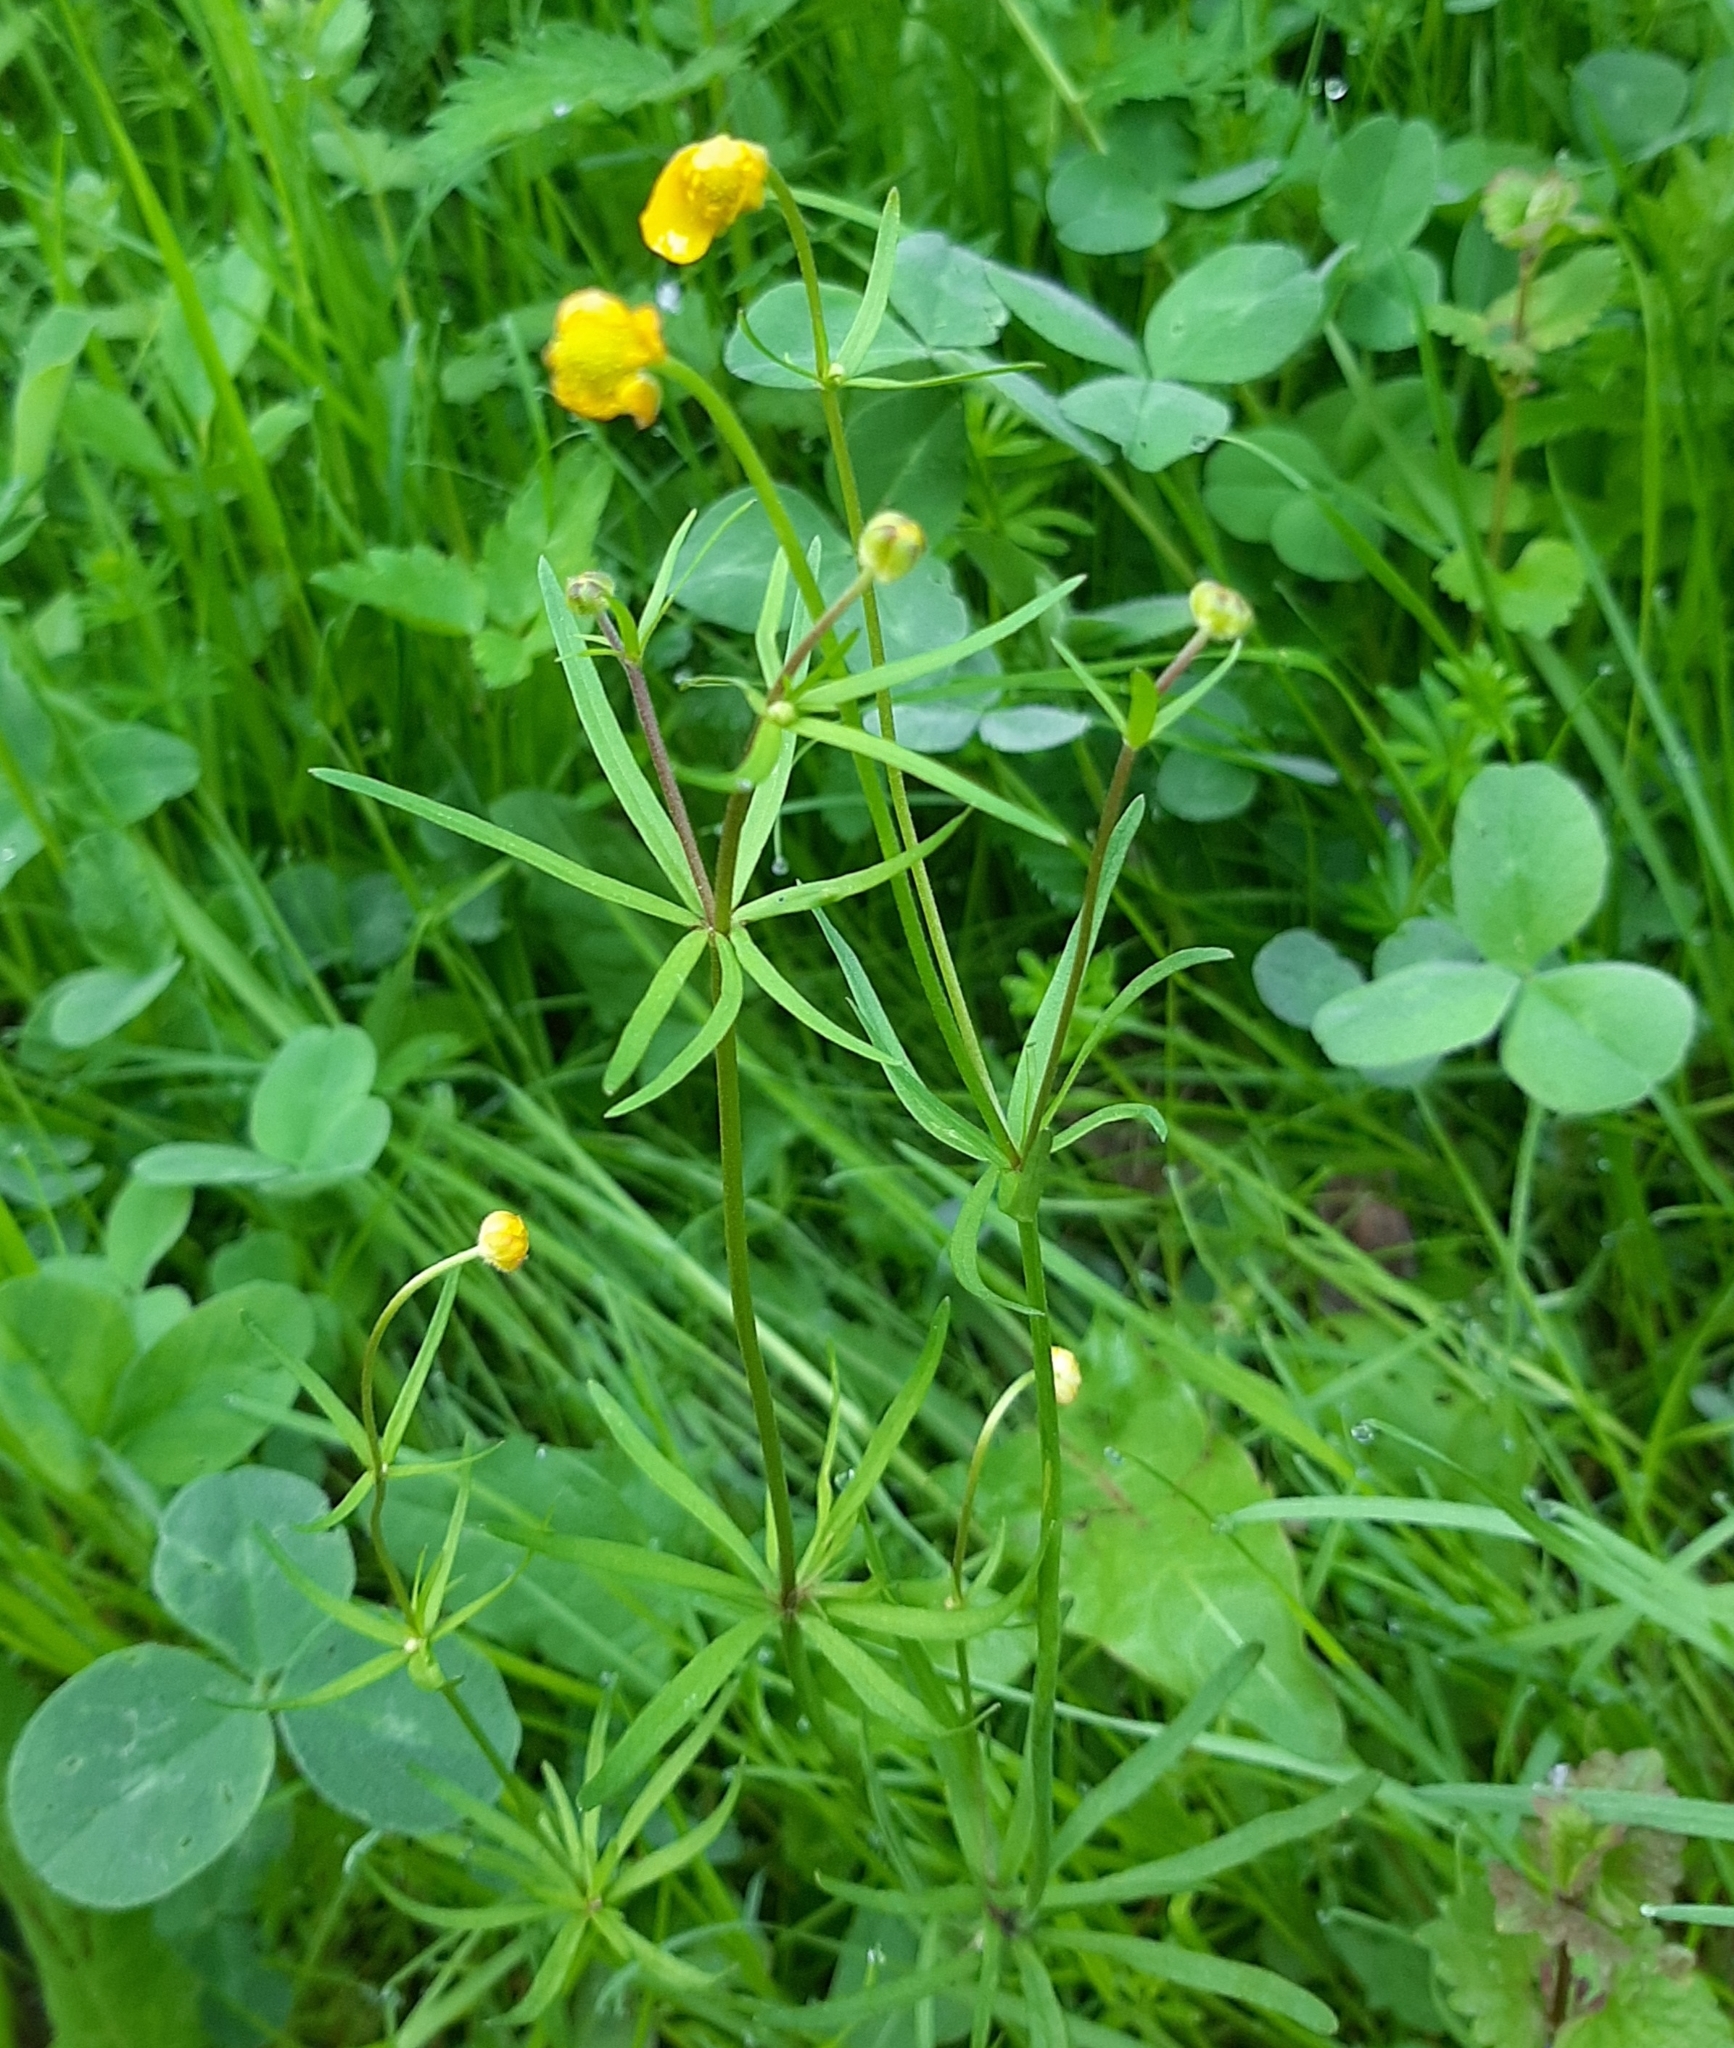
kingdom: Plantae
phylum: Tracheophyta
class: Magnoliopsida
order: Ranunculales
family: Ranunculaceae
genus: Ranunculus
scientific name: Ranunculus auricomus
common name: Goldilocks buttercup
